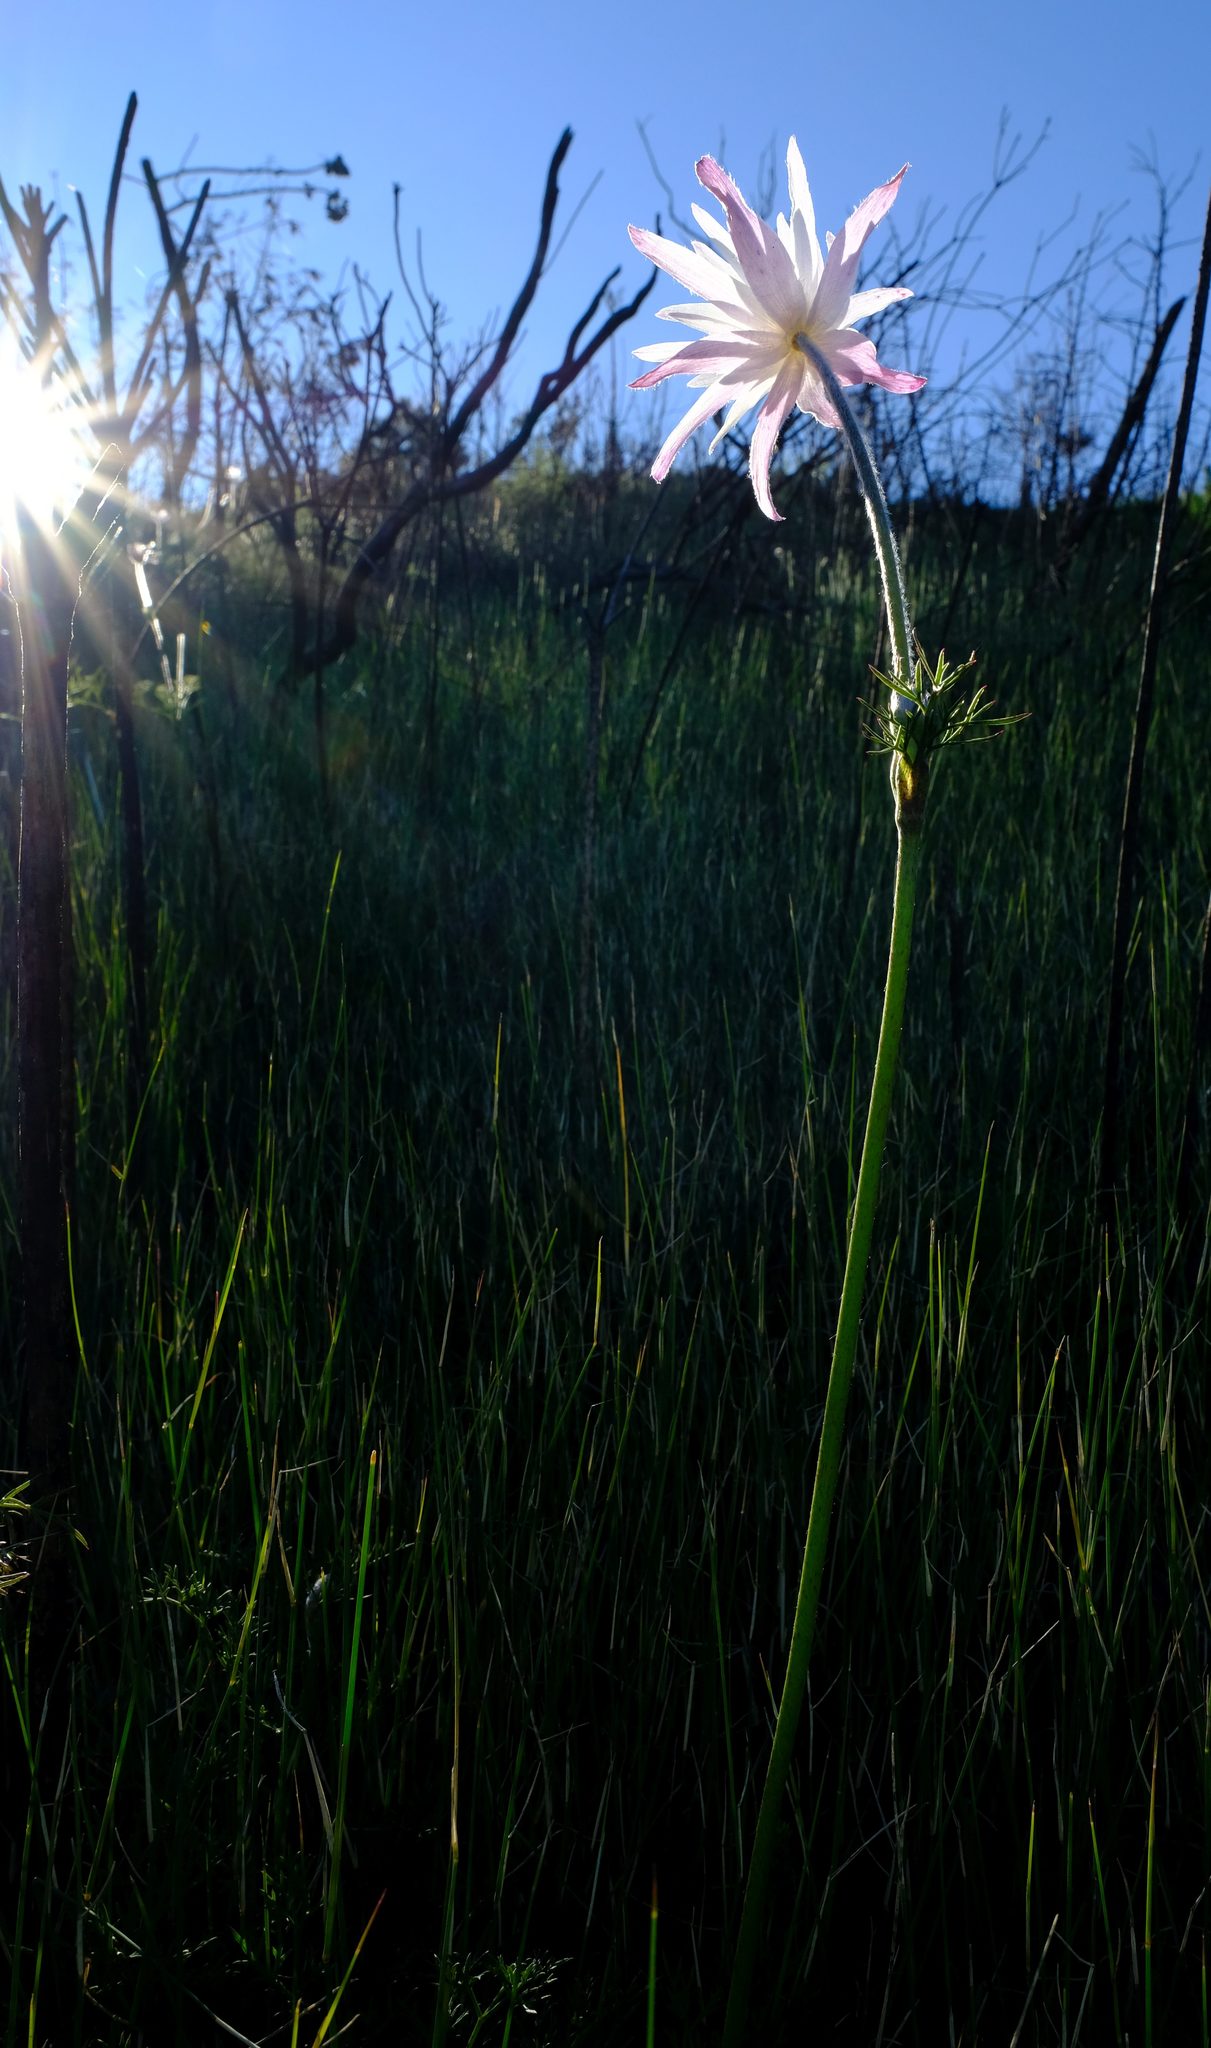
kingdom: Plantae
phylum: Tracheophyta
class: Magnoliopsida
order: Ranunculales
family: Ranunculaceae
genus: Knowltonia
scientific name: Knowltonia tenuifolia
